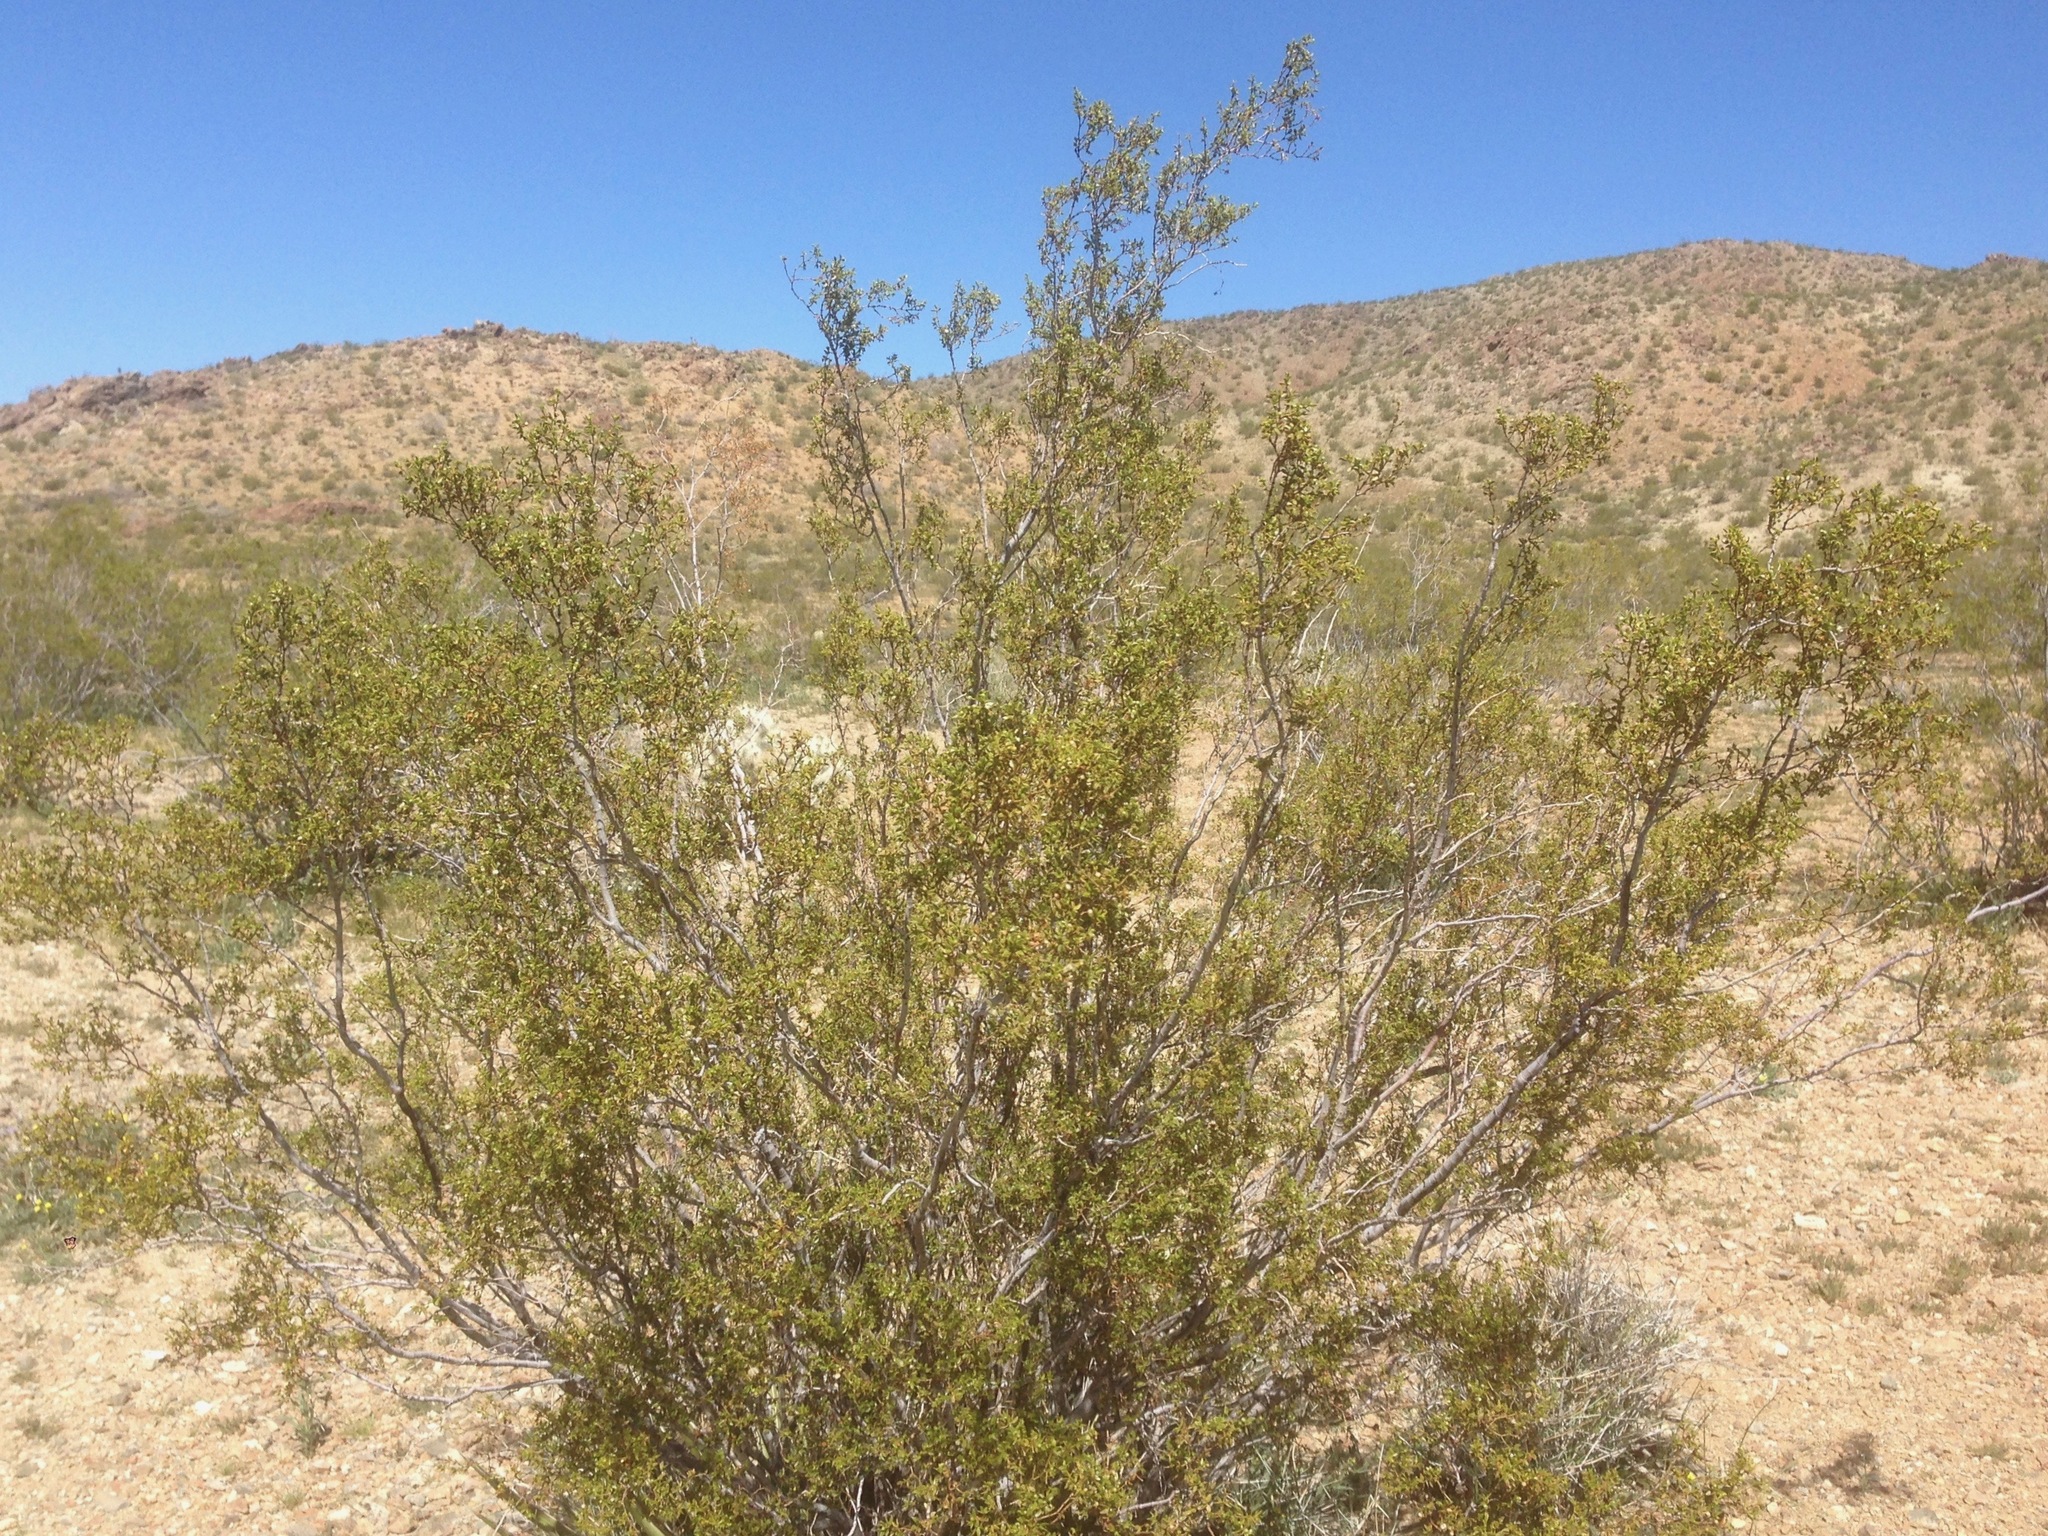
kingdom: Plantae
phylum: Tracheophyta
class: Magnoliopsida
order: Zygophyllales
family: Zygophyllaceae
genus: Larrea
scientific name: Larrea tridentata
